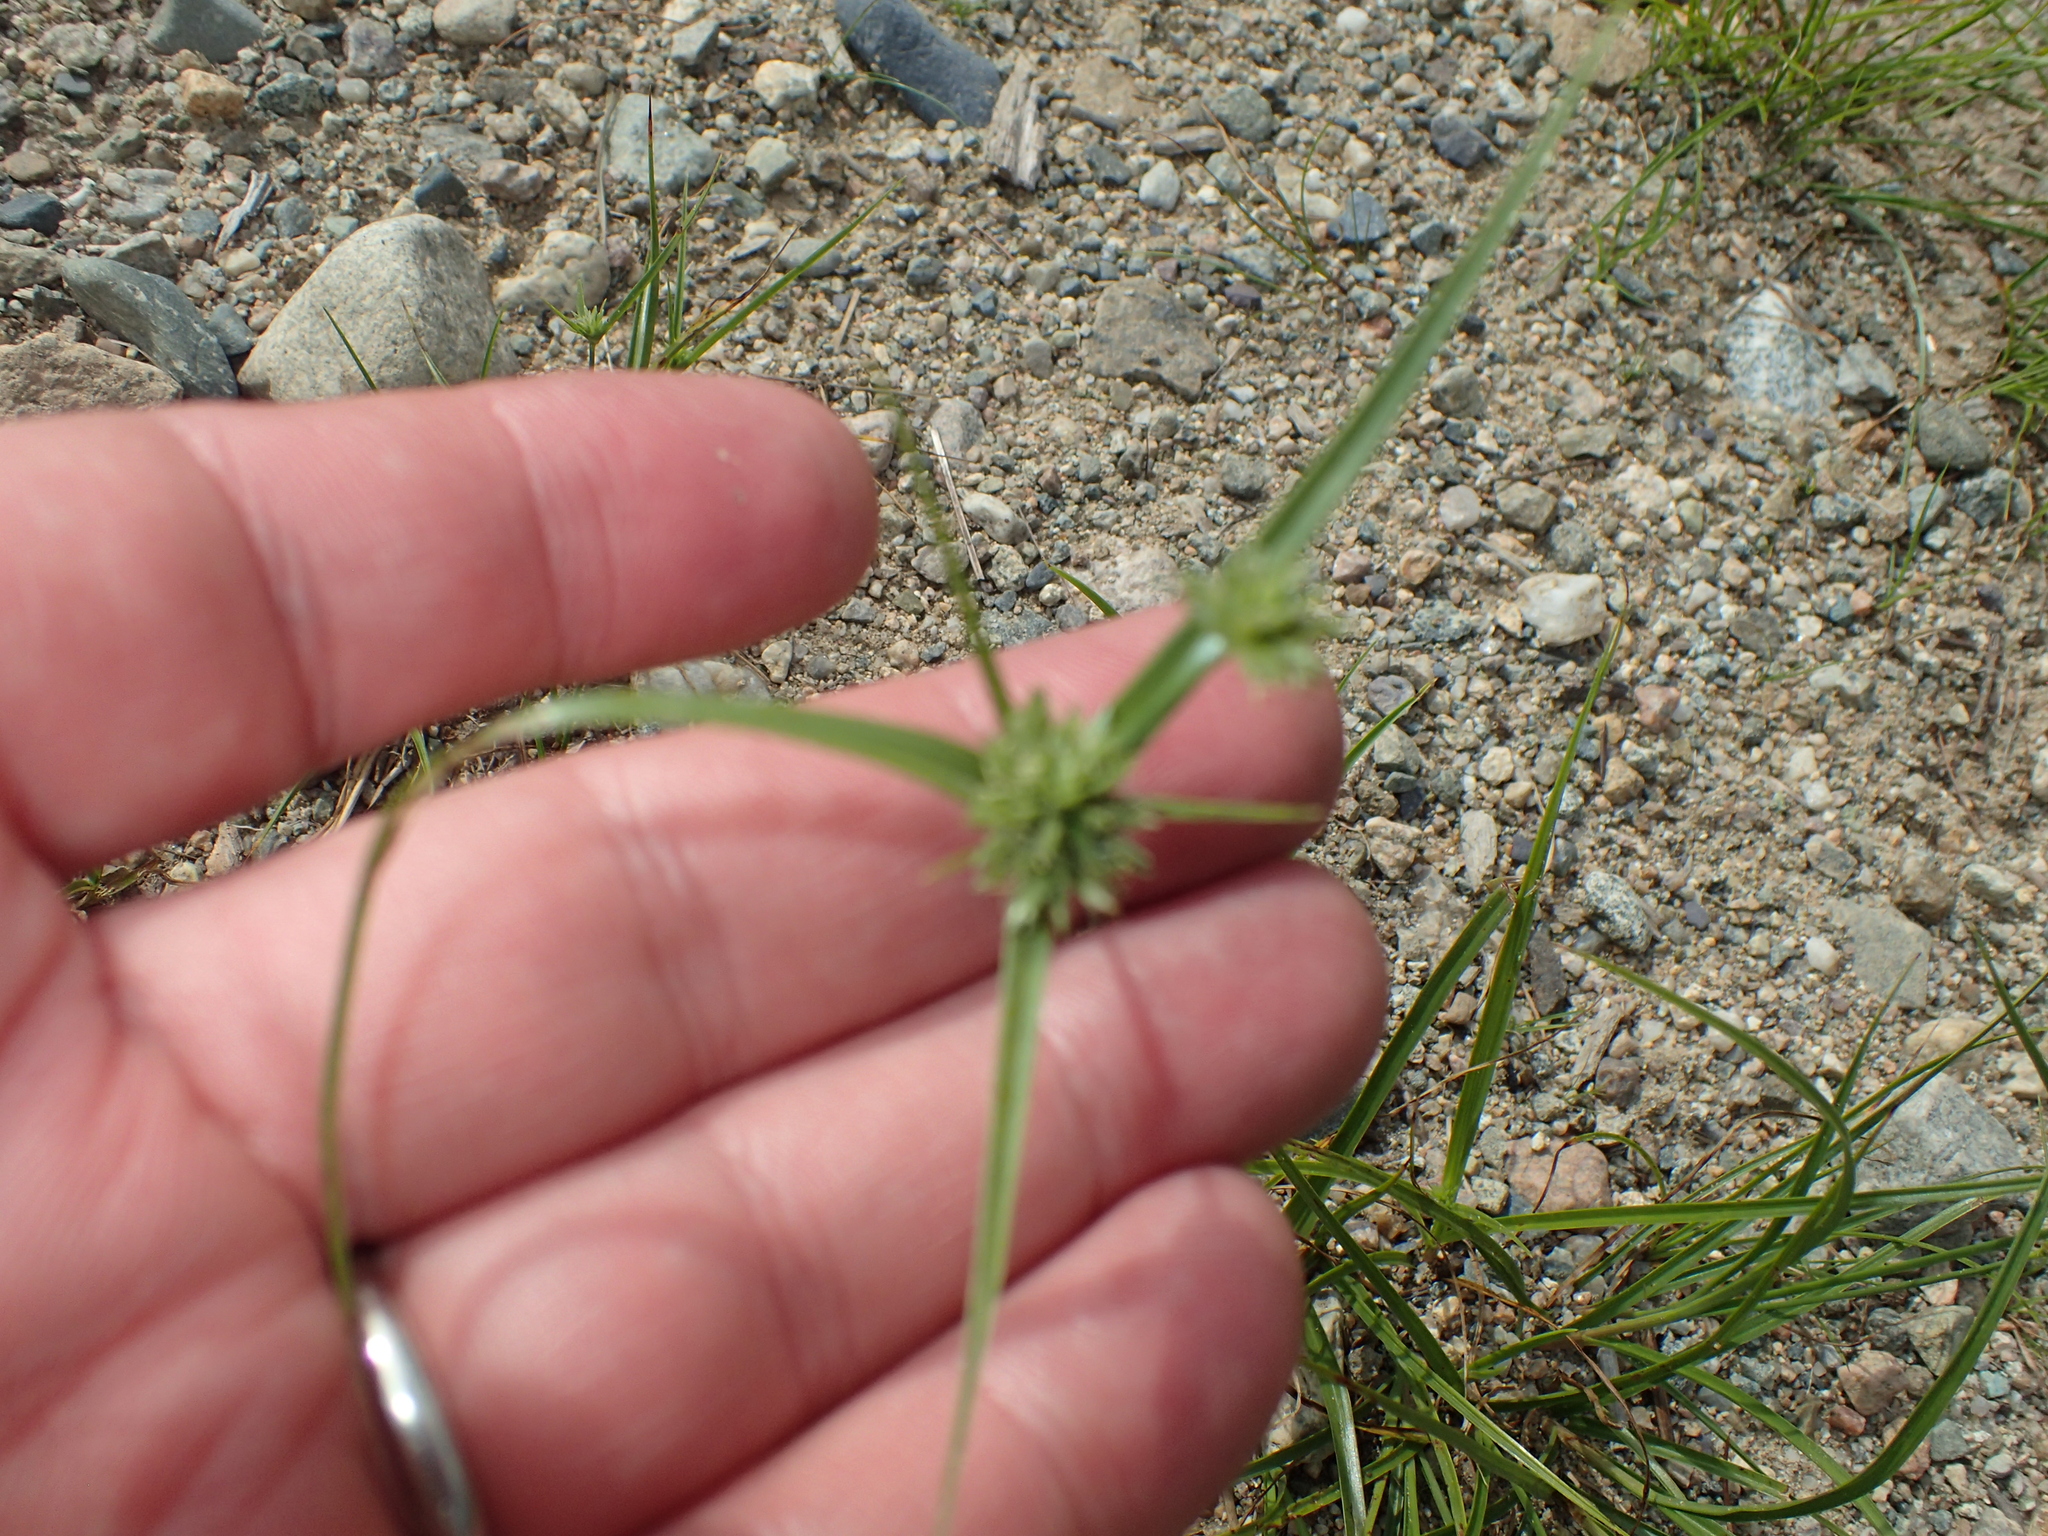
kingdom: Plantae
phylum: Tracheophyta
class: Liliopsida
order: Poales
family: Cyperaceae
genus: Cyperus
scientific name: Cyperus lupulinus
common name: Great plains flatsedge
